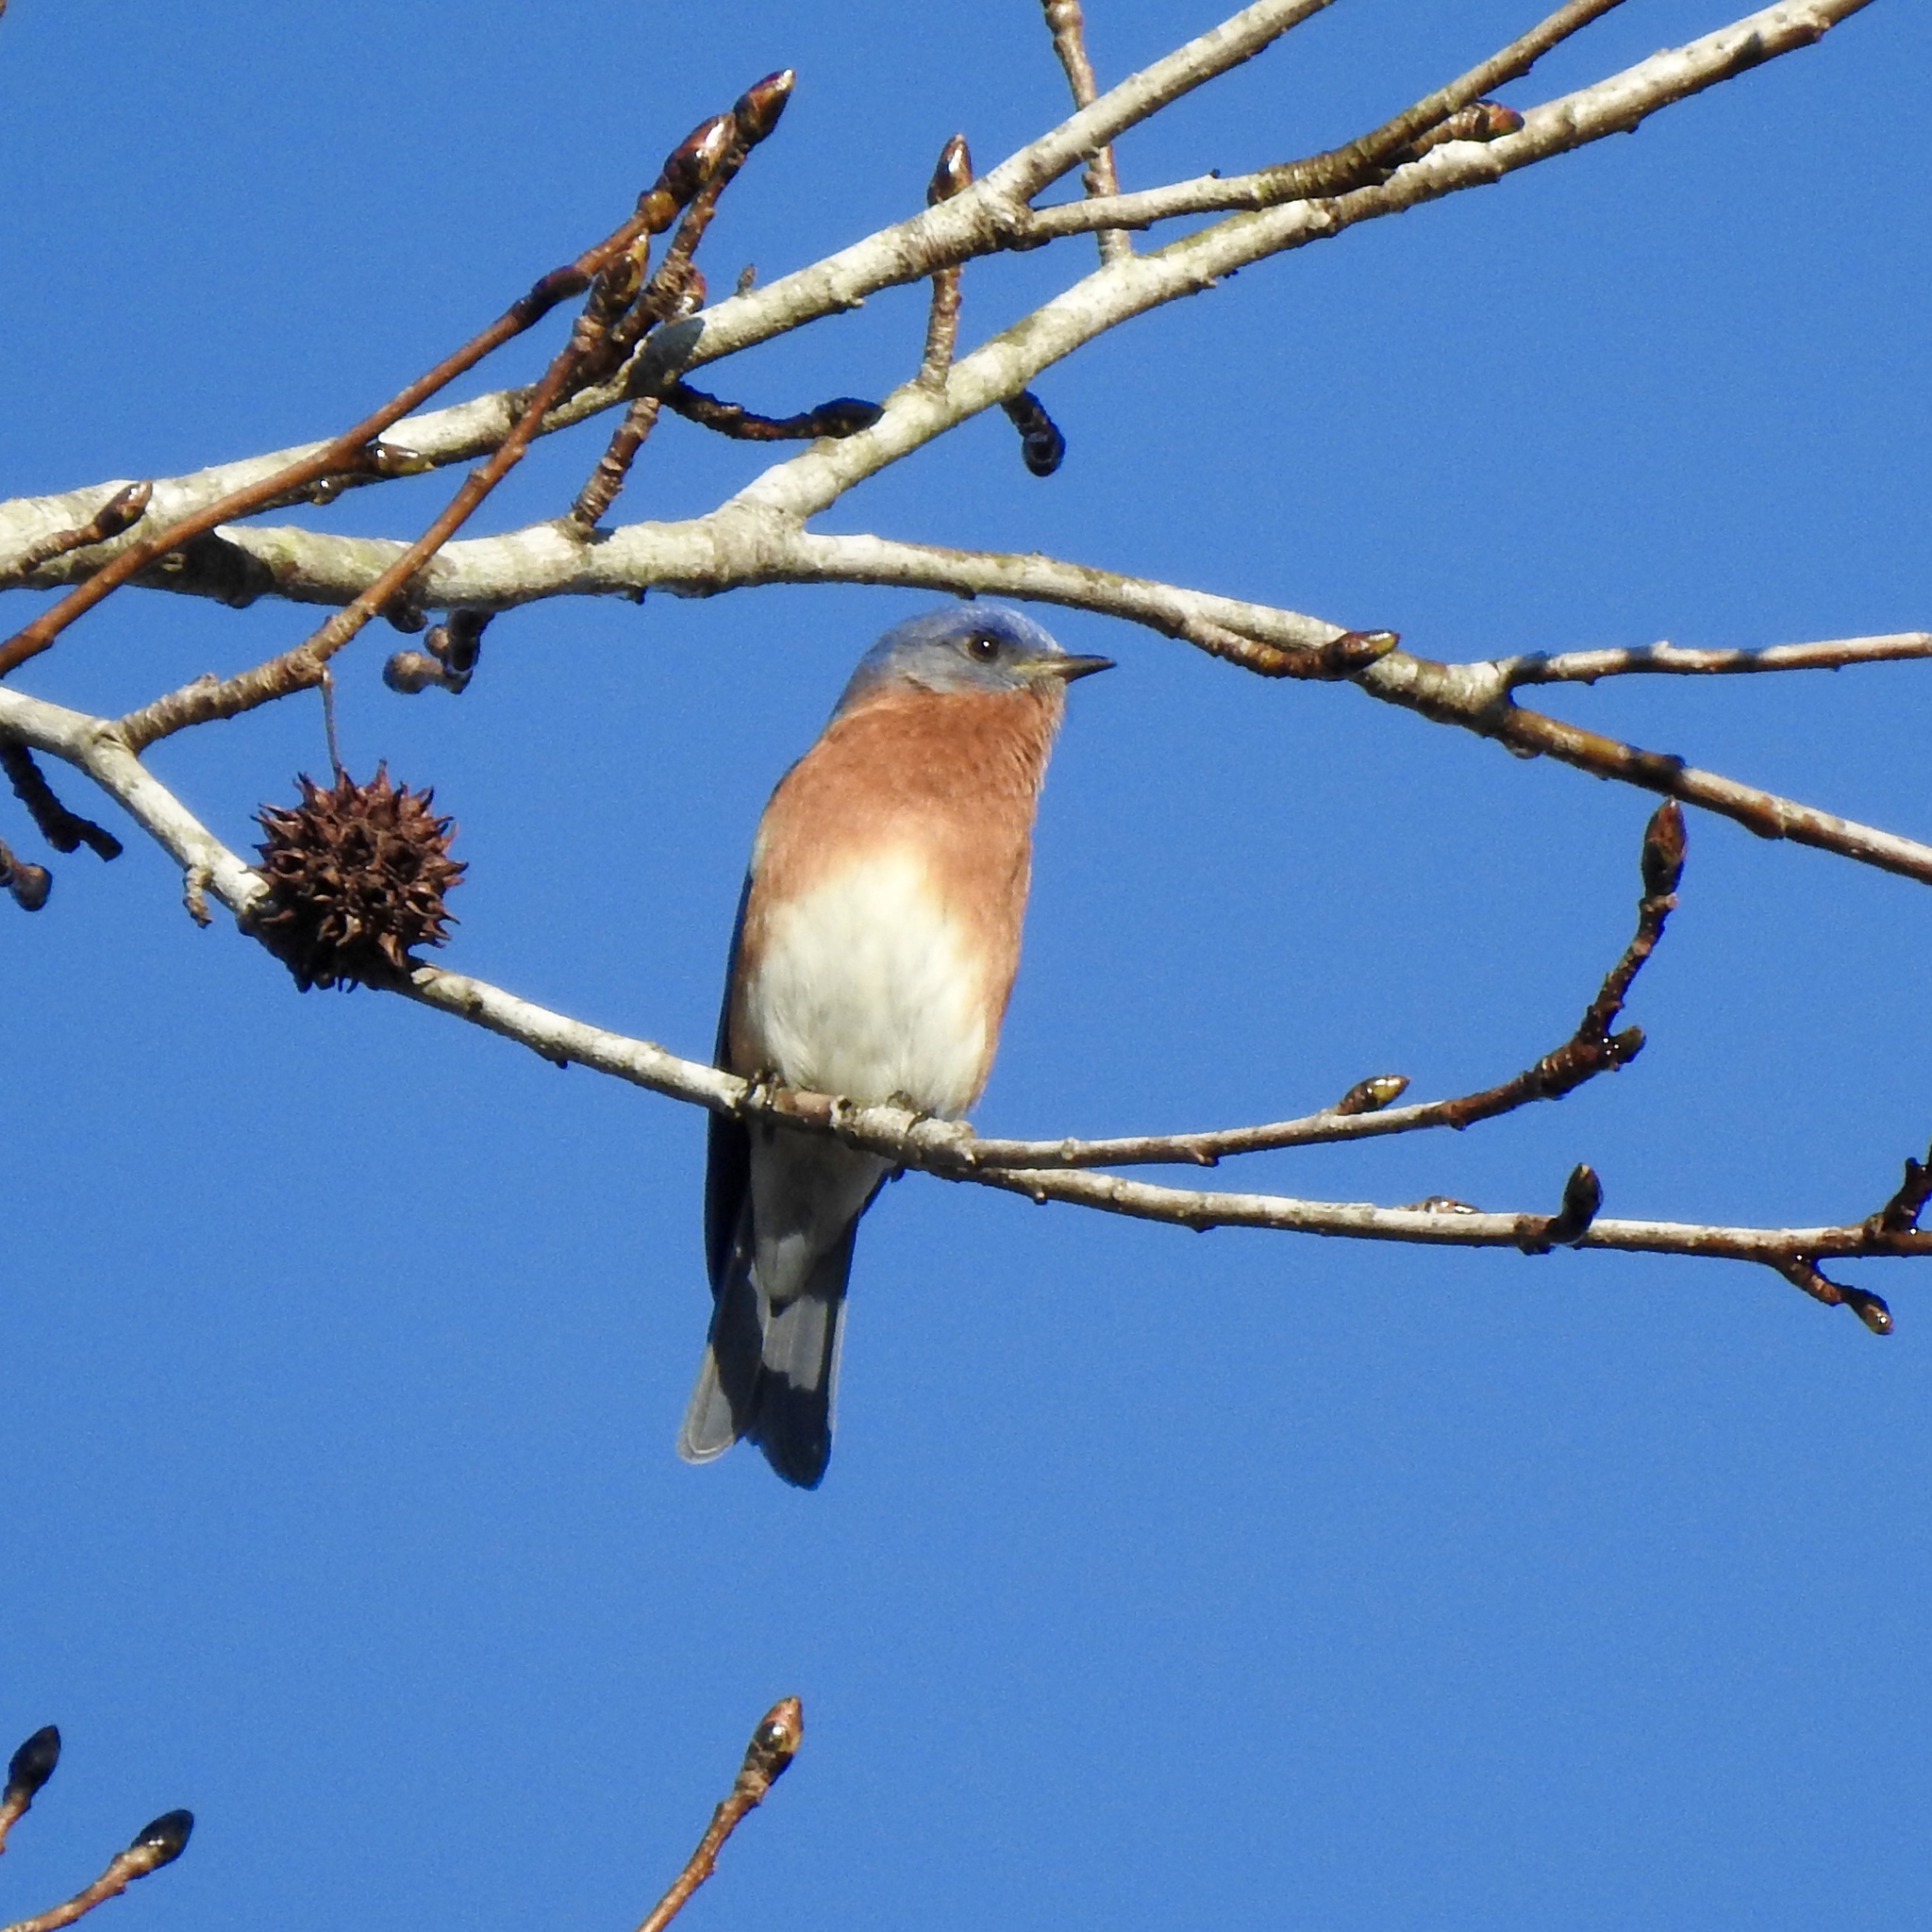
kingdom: Animalia
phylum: Chordata
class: Aves
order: Passeriformes
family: Turdidae
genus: Sialia
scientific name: Sialia sialis
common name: Eastern bluebird
